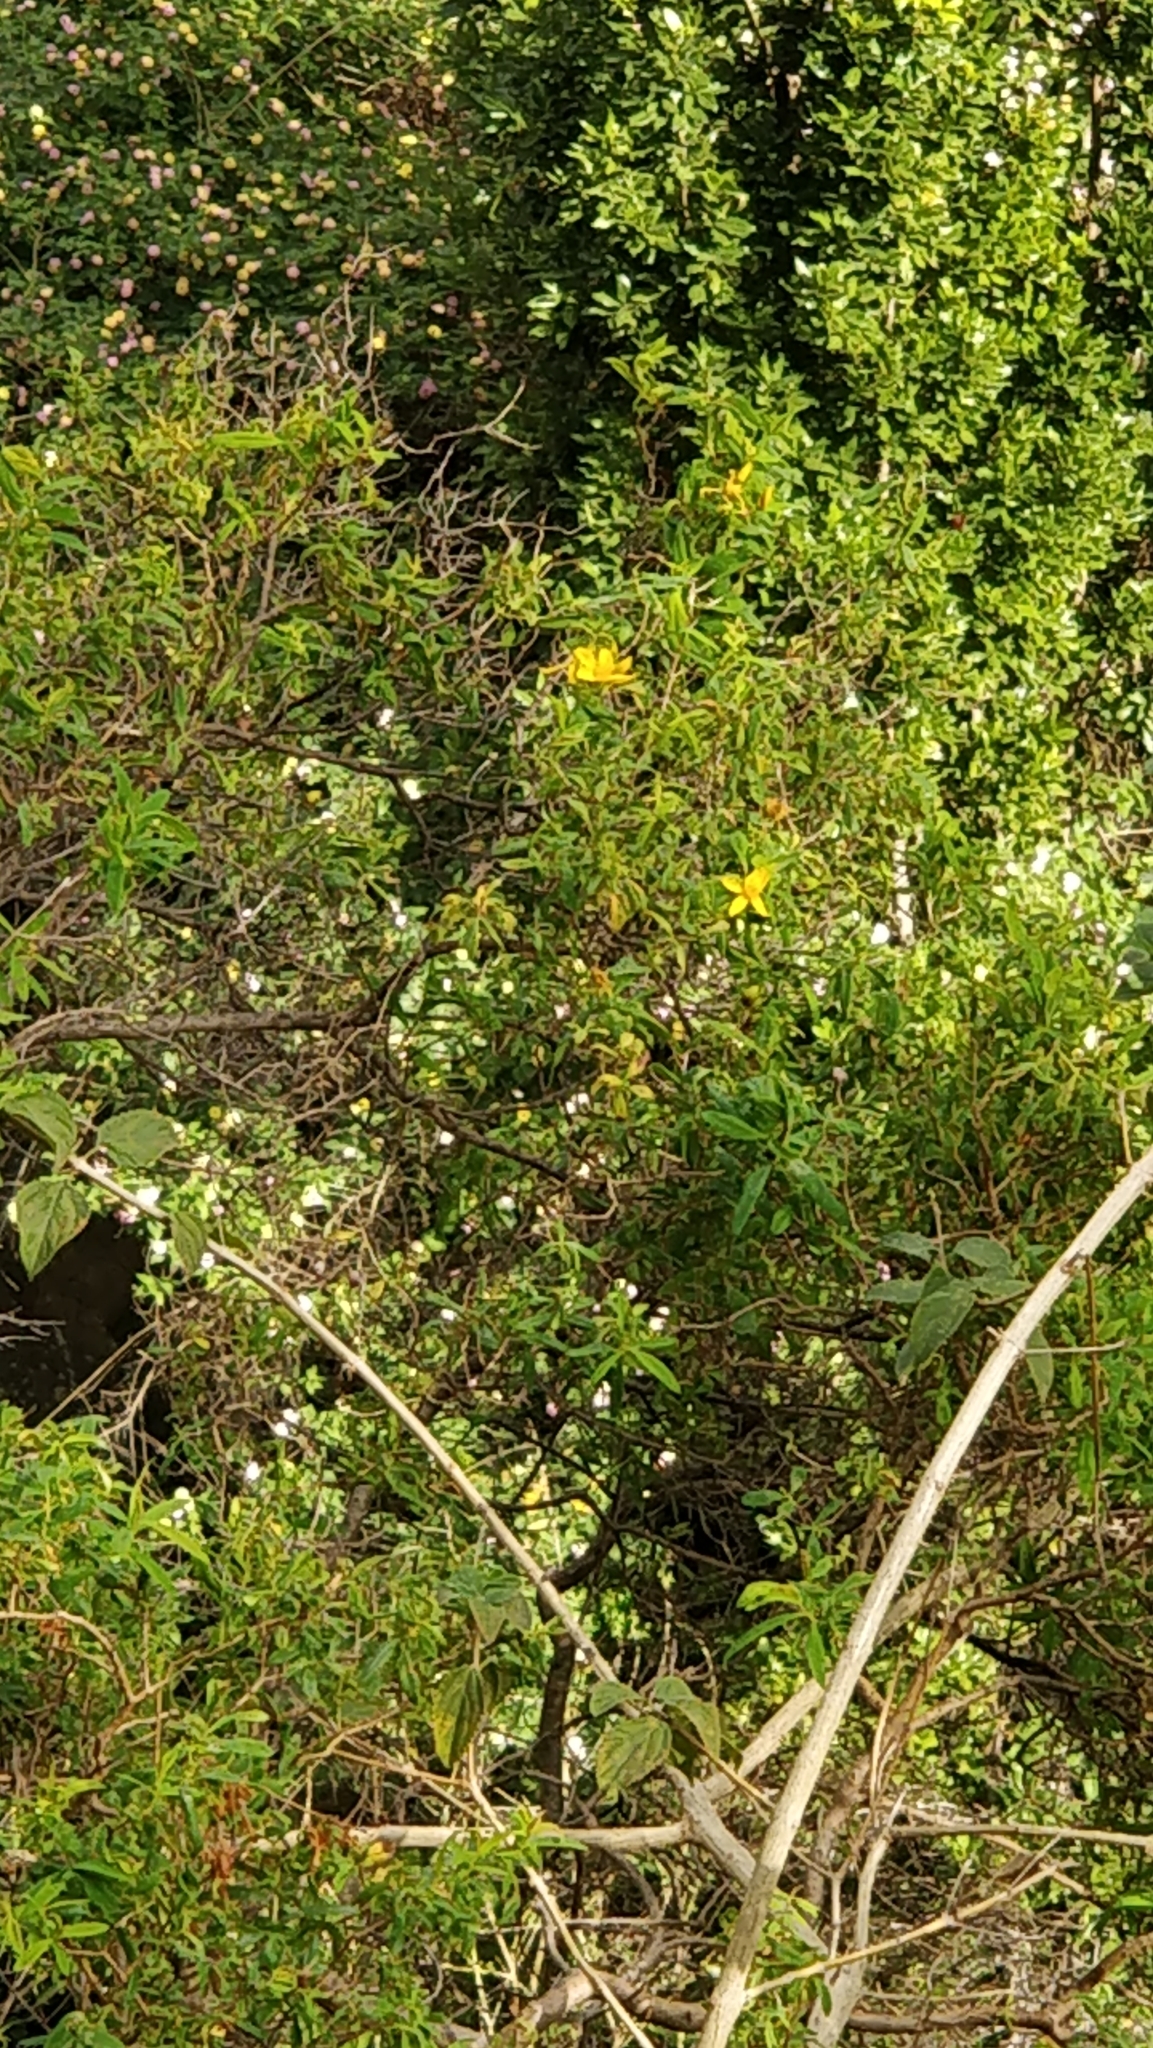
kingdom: Plantae
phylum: Tracheophyta
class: Magnoliopsida
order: Malpighiales
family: Hypericaceae
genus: Hypericum
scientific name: Hypericum canariense
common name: Canary island st. johnswort
